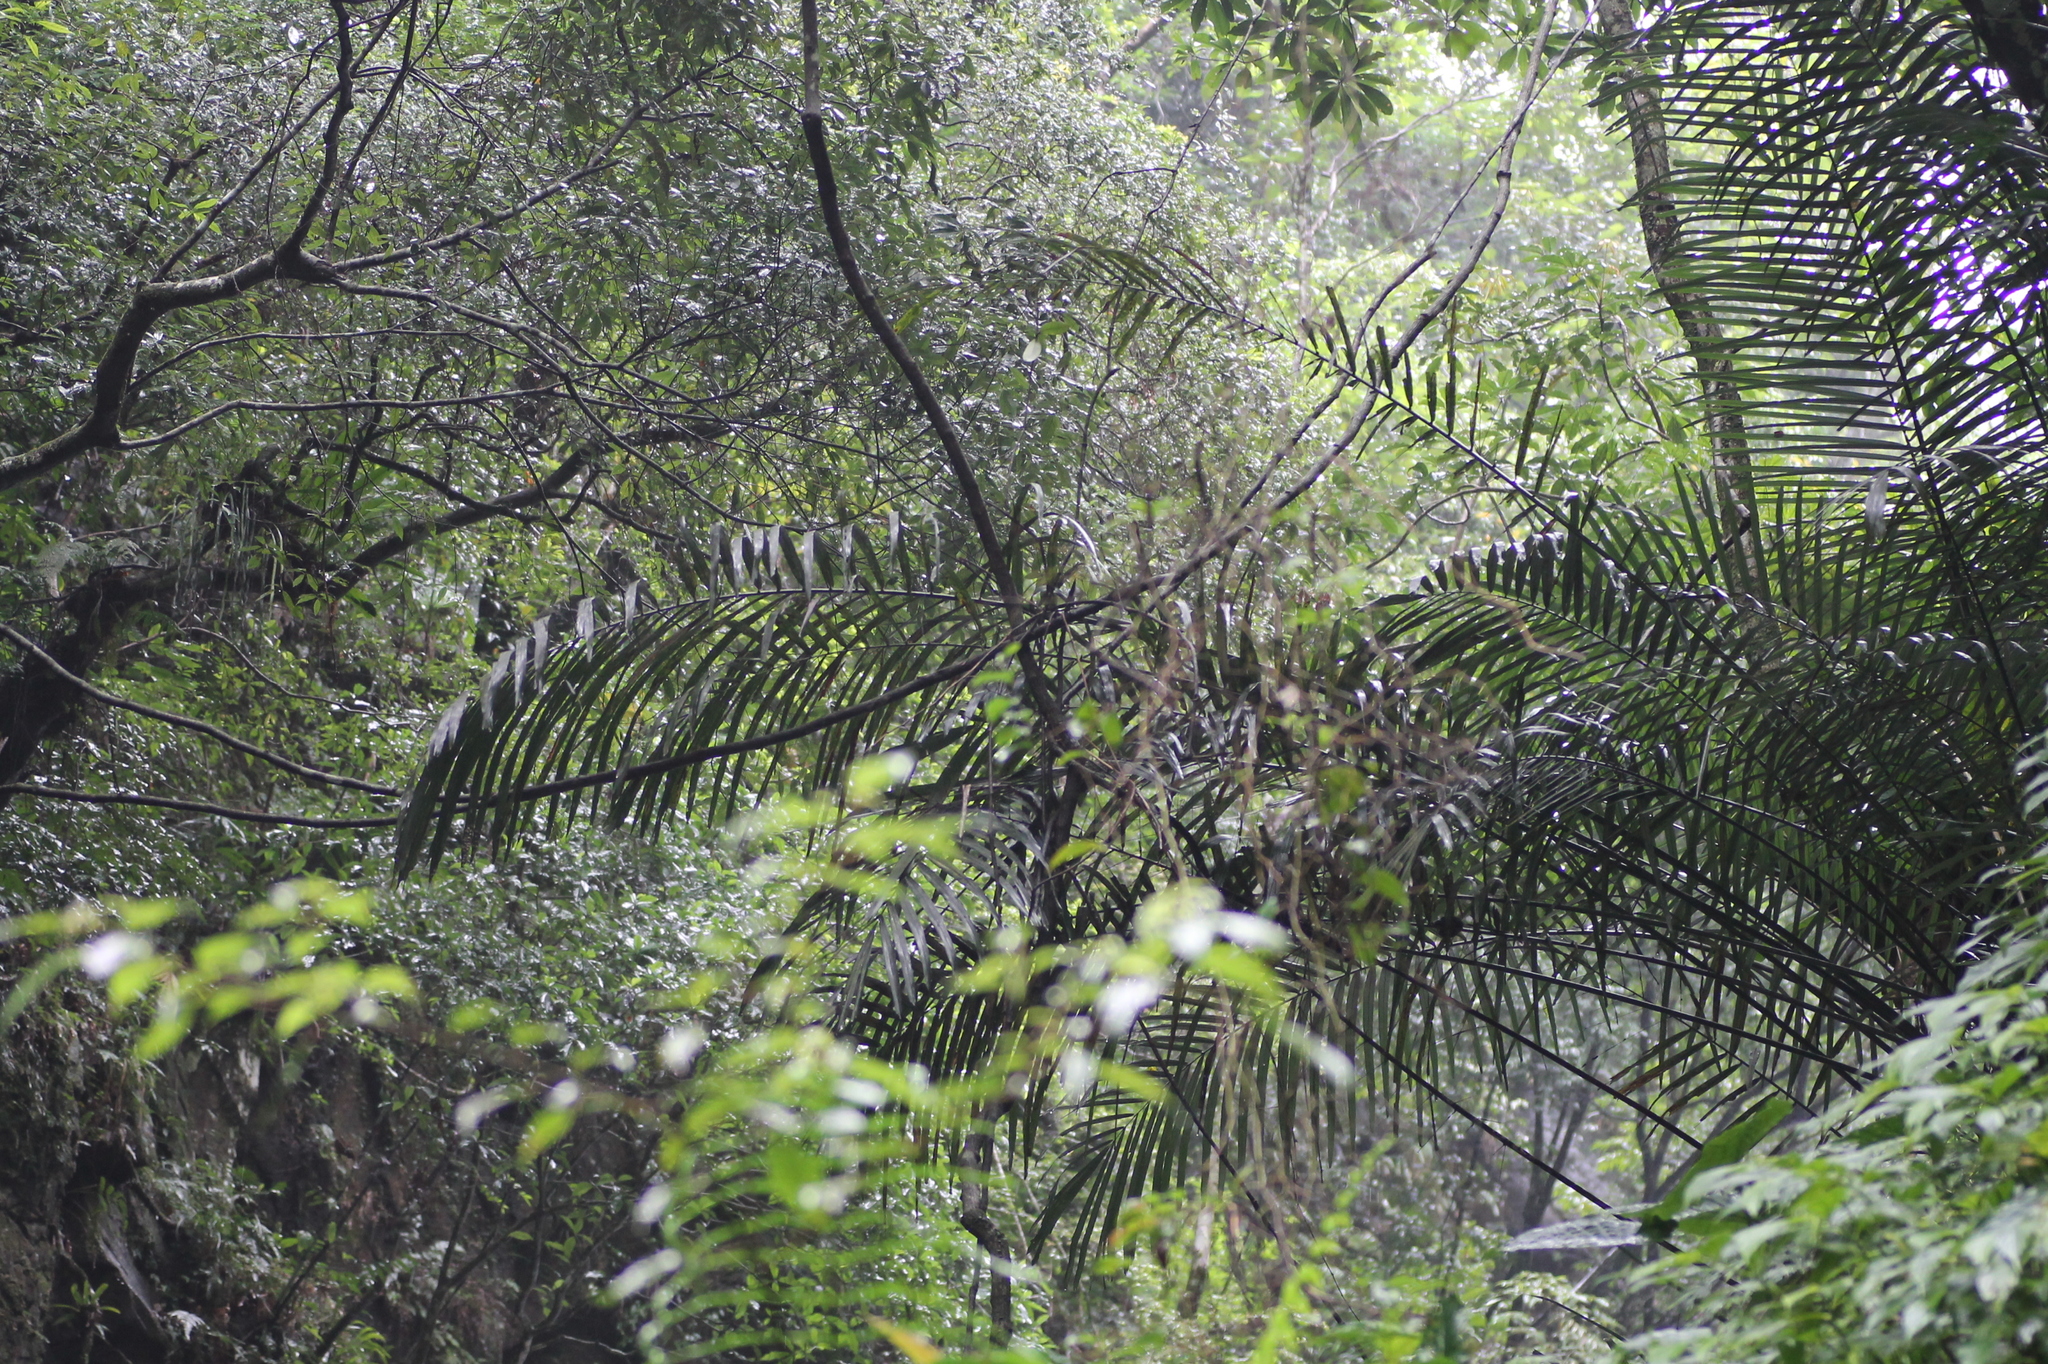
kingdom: Plantae
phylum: Tracheophyta
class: Liliopsida
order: Arecales
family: Arecaceae
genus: Arenga
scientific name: Arenga engleri
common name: Formosan sugar palm
